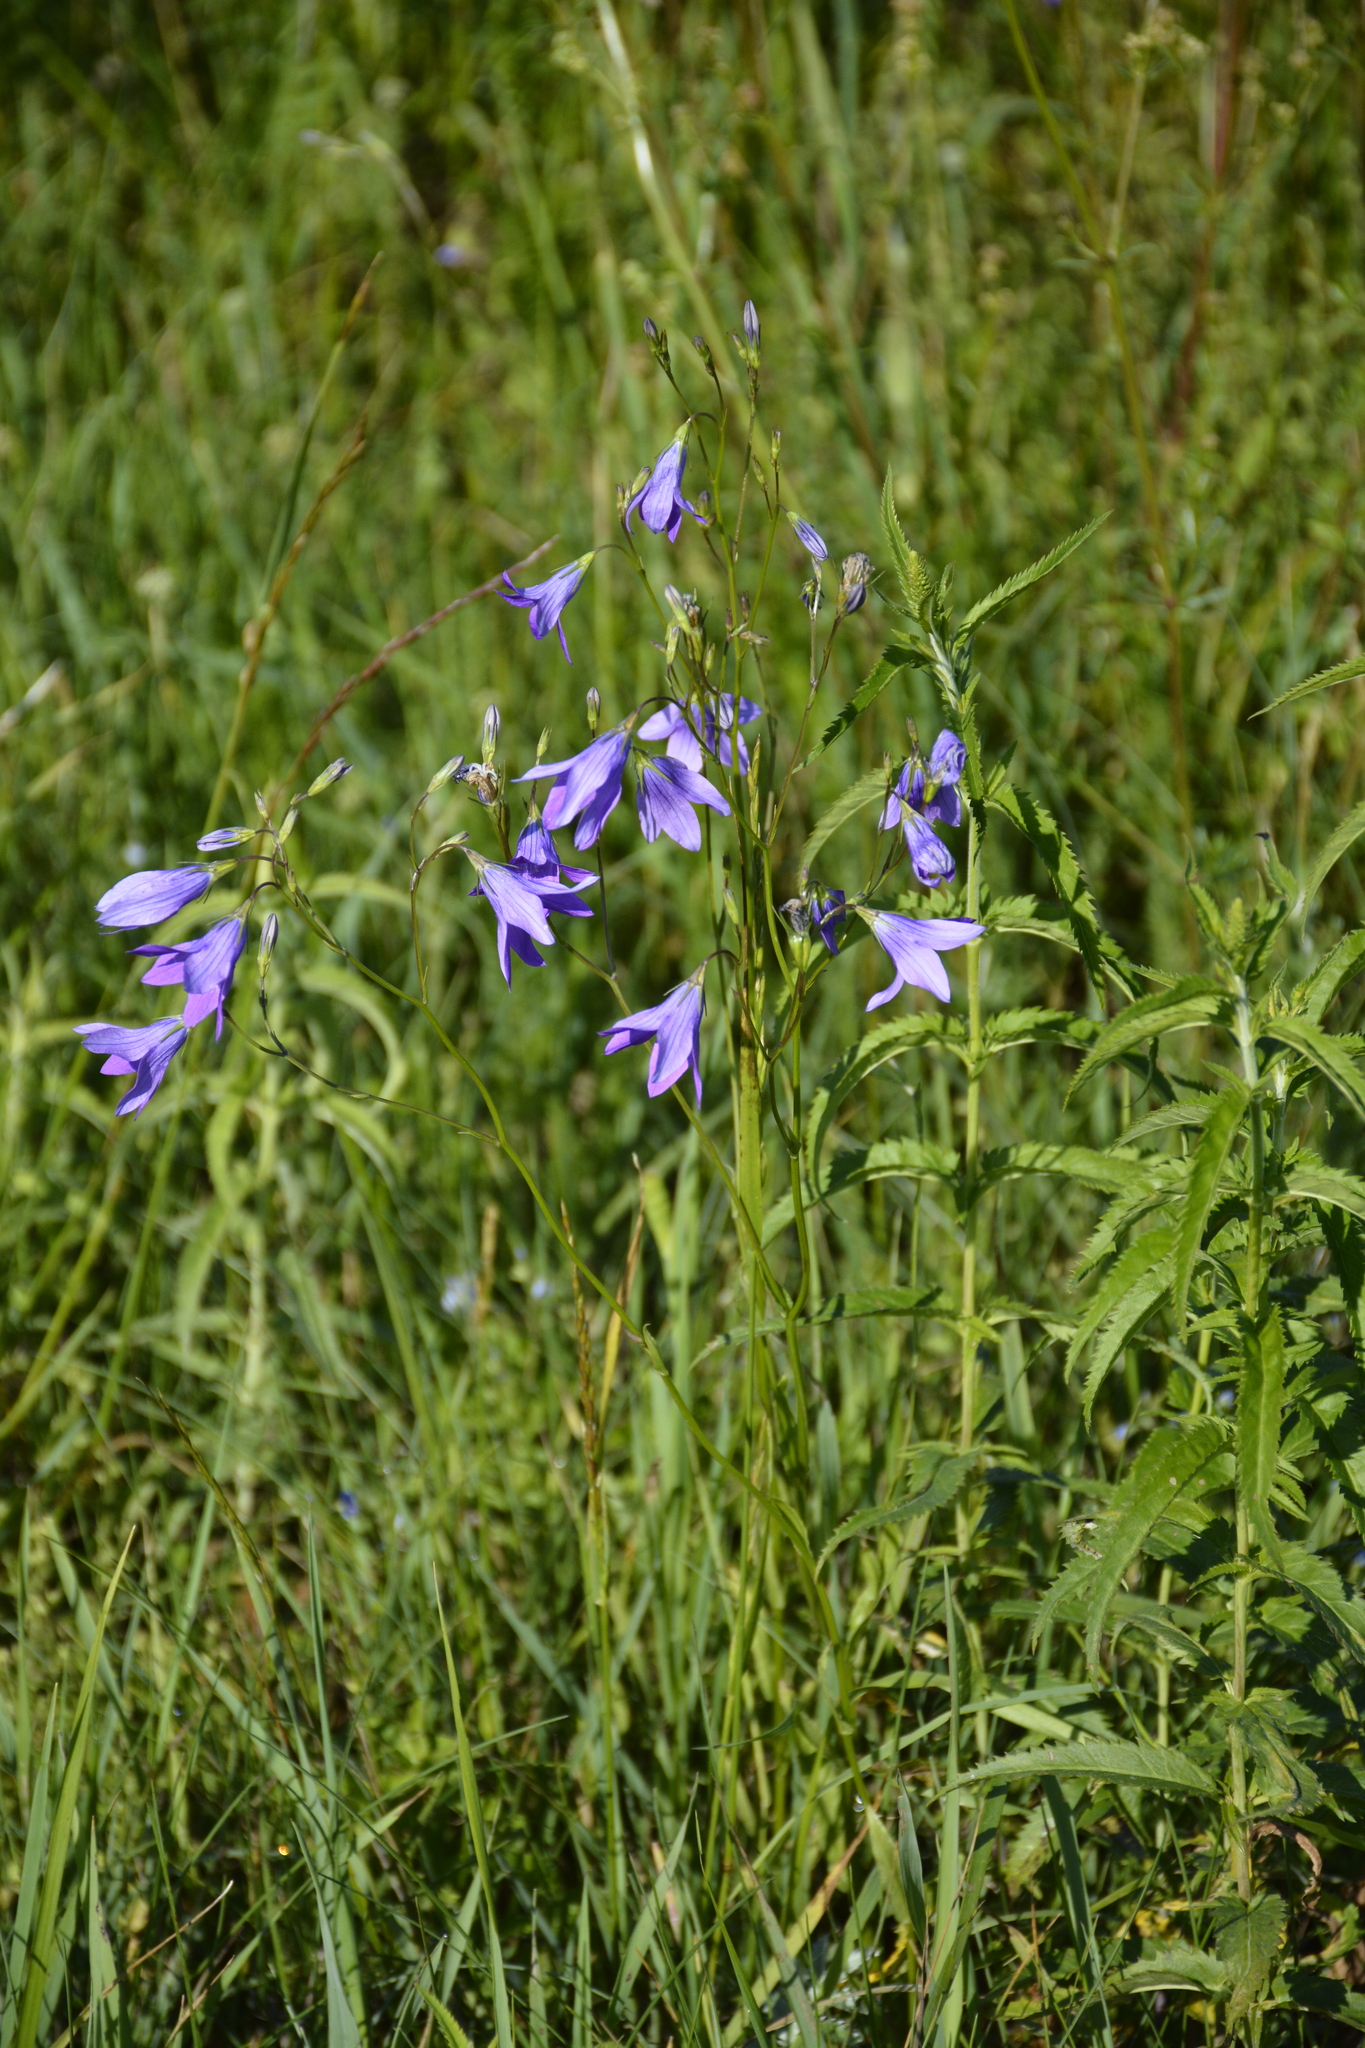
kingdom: Plantae
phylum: Tracheophyta
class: Magnoliopsida
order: Asterales
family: Campanulaceae
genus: Campanula
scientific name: Campanula patula
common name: Spreading bellflower
